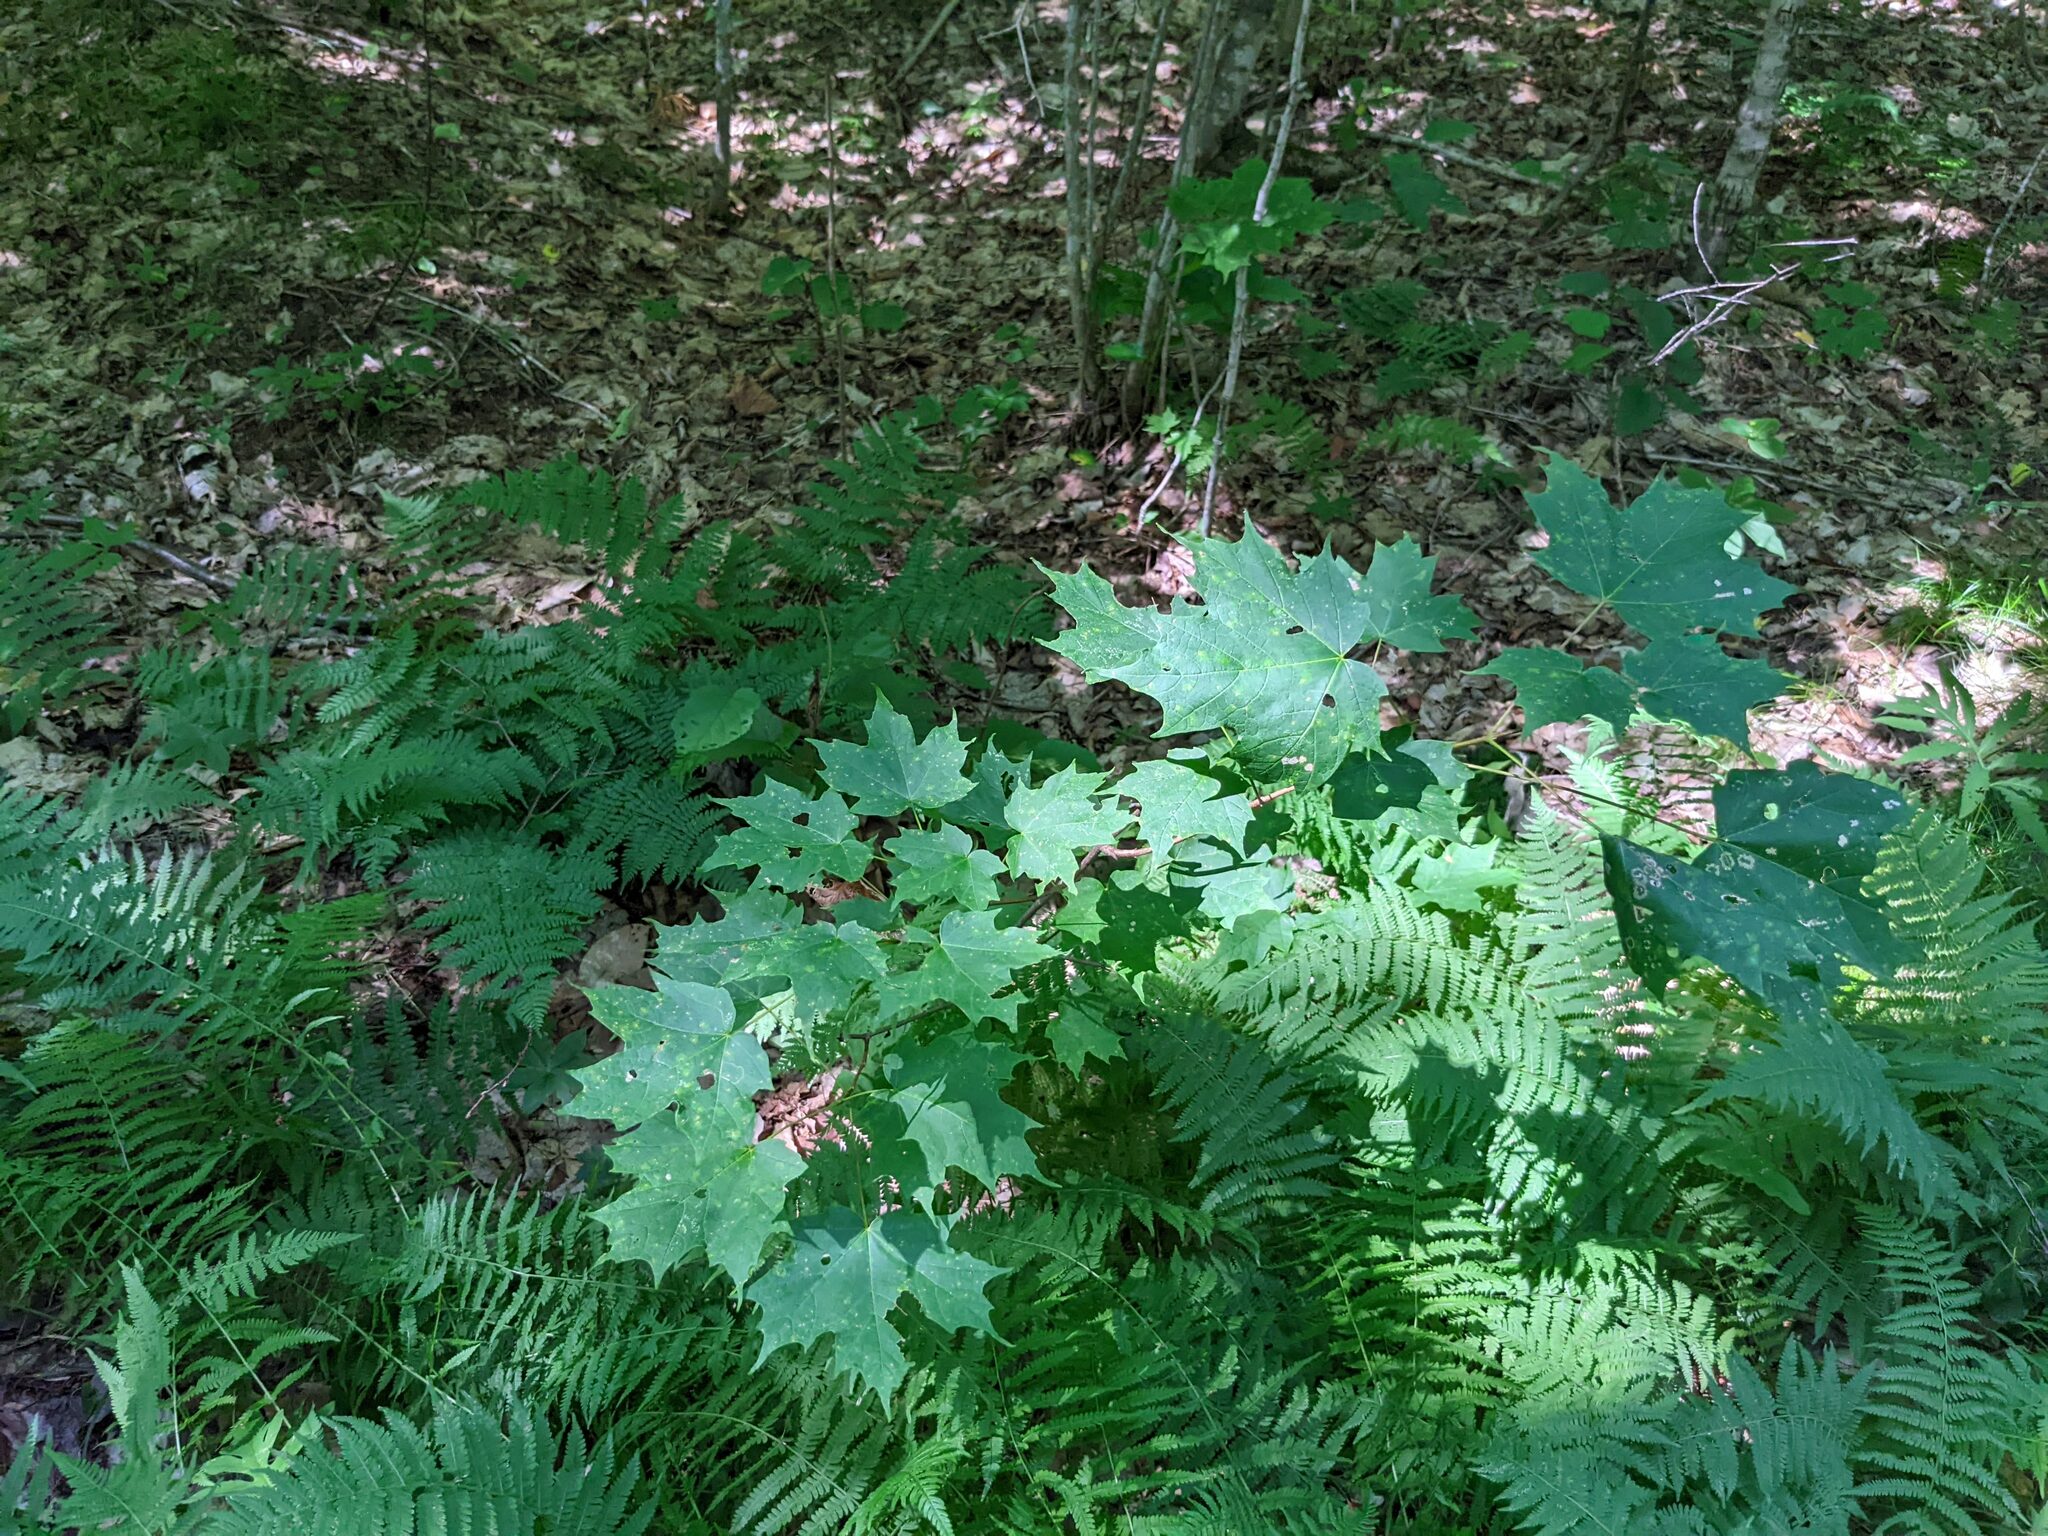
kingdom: Plantae
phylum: Tracheophyta
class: Magnoliopsida
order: Sapindales
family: Sapindaceae
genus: Acer
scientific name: Acer saccharum
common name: Sugar maple
